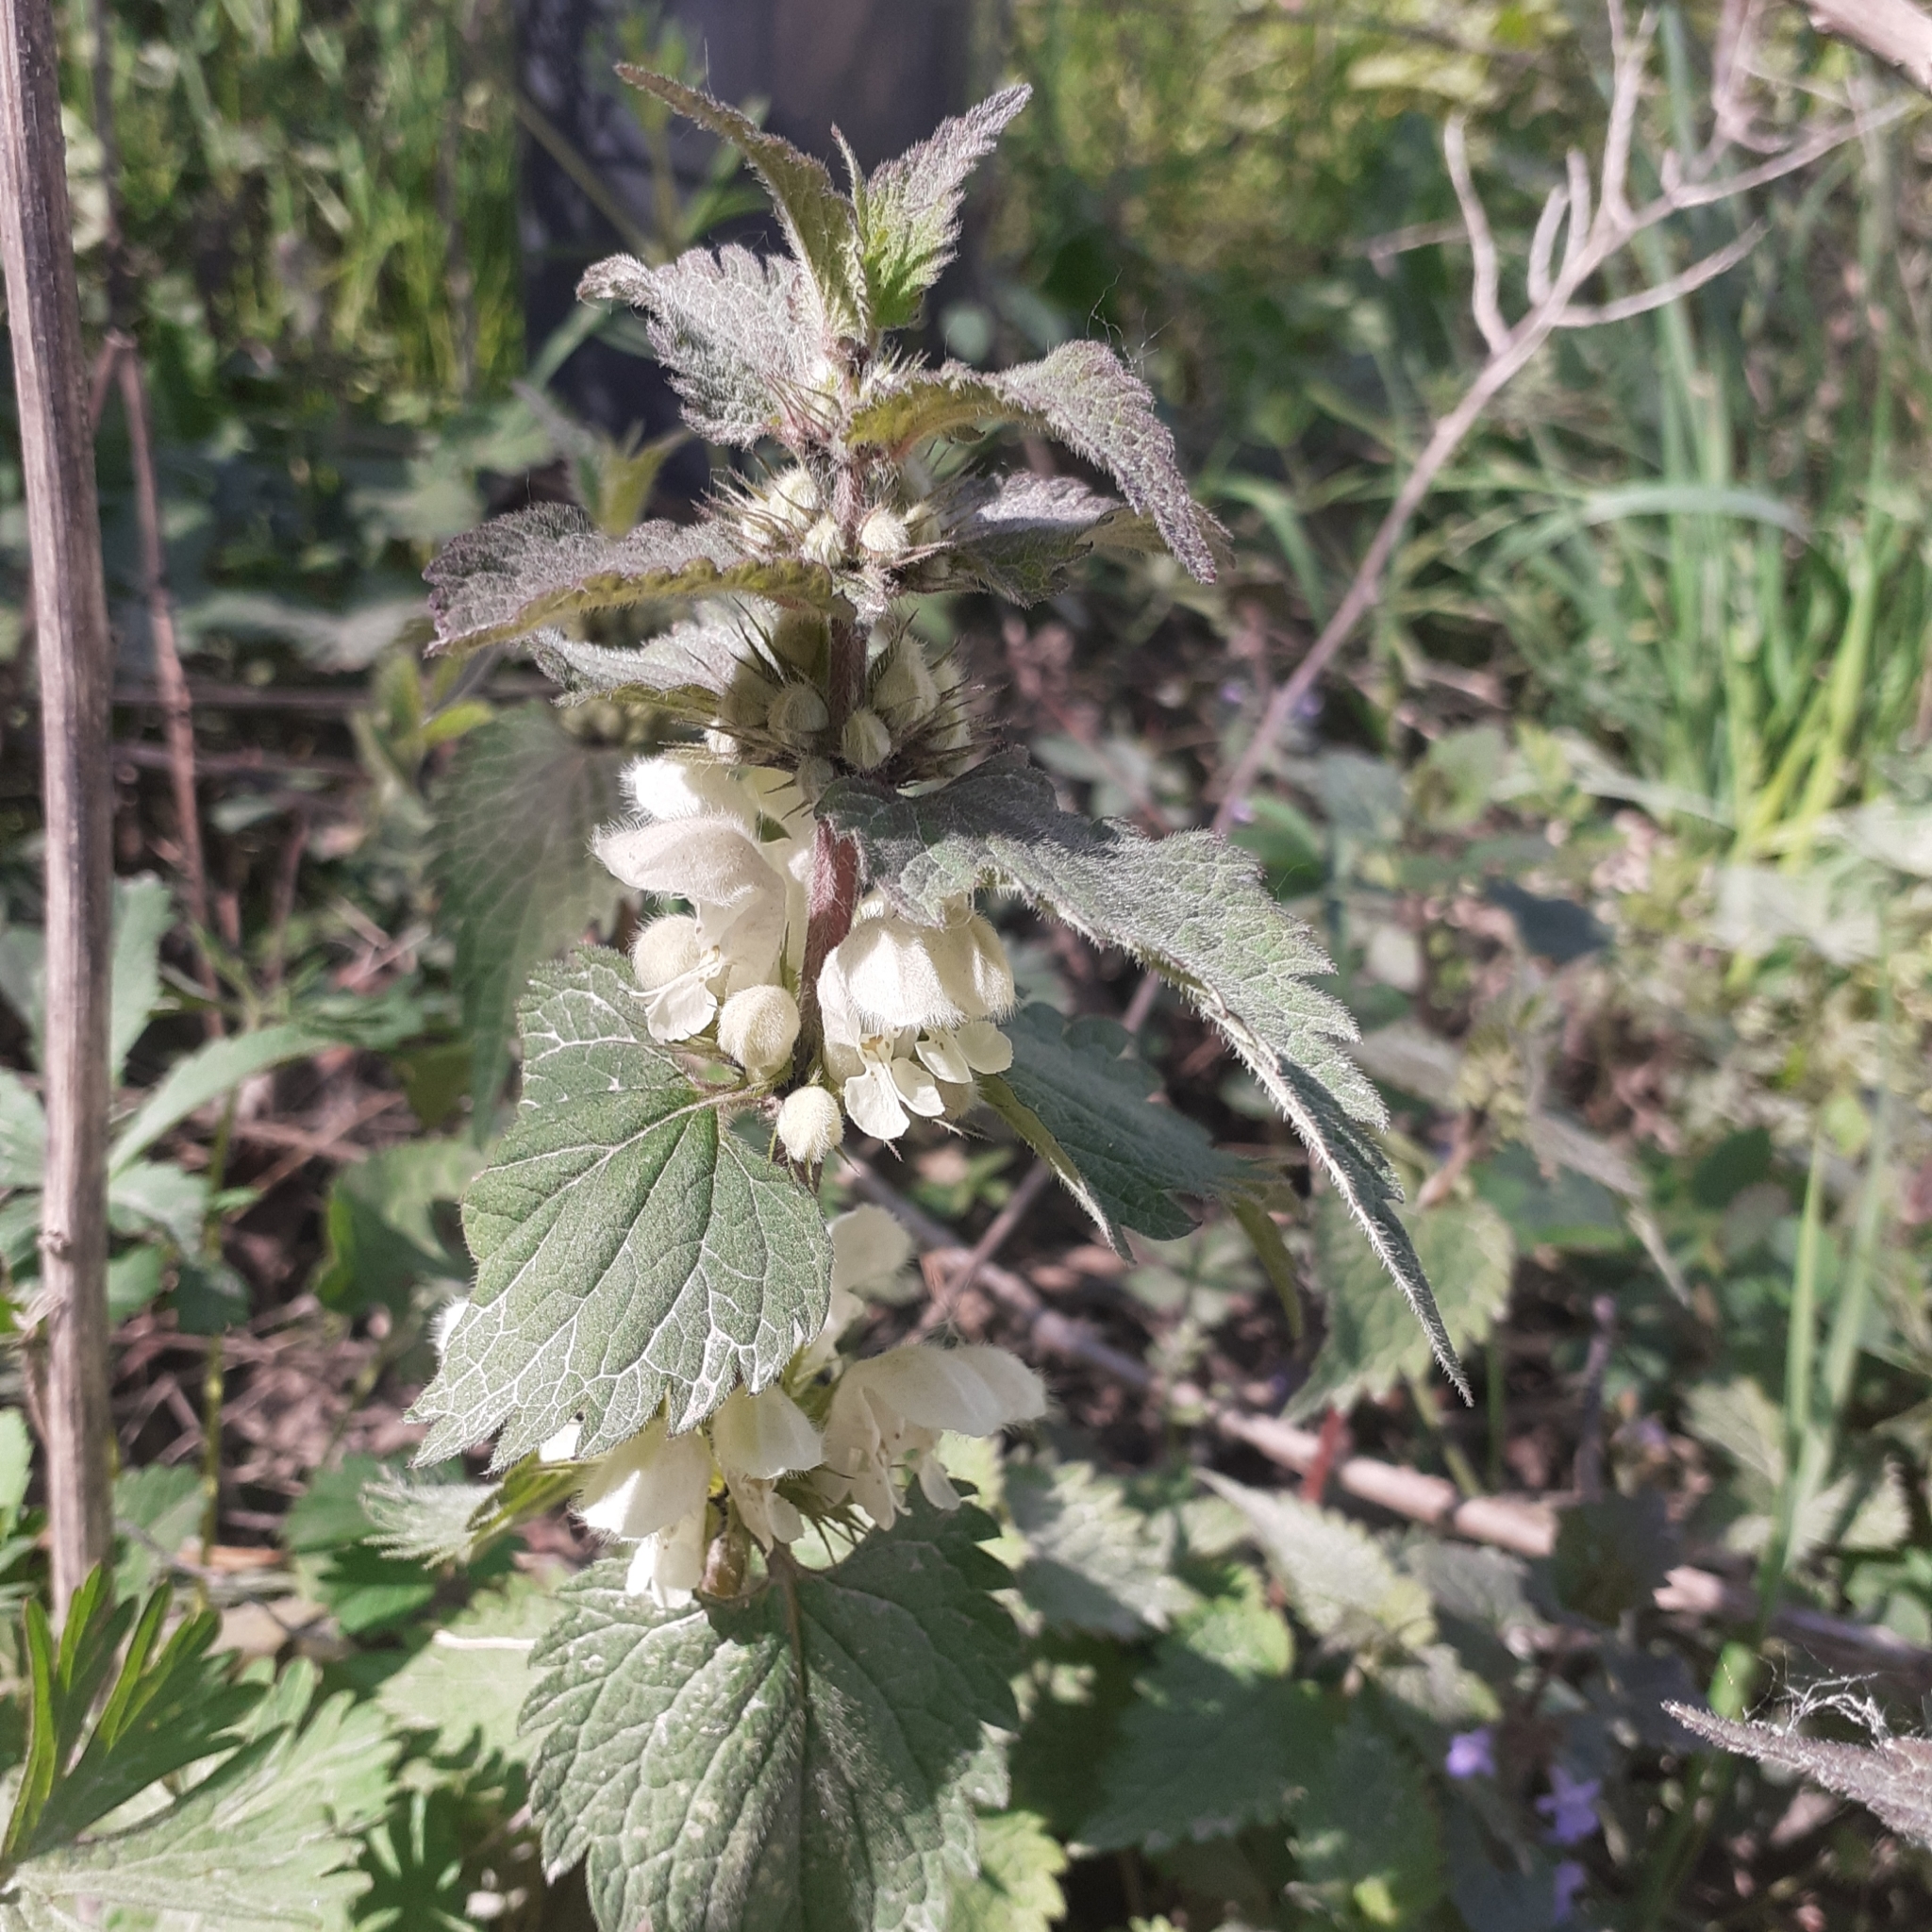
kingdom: Plantae
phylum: Tracheophyta
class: Magnoliopsida
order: Lamiales
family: Lamiaceae
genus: Lamium
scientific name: Lamium album
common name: White dead-nettle
